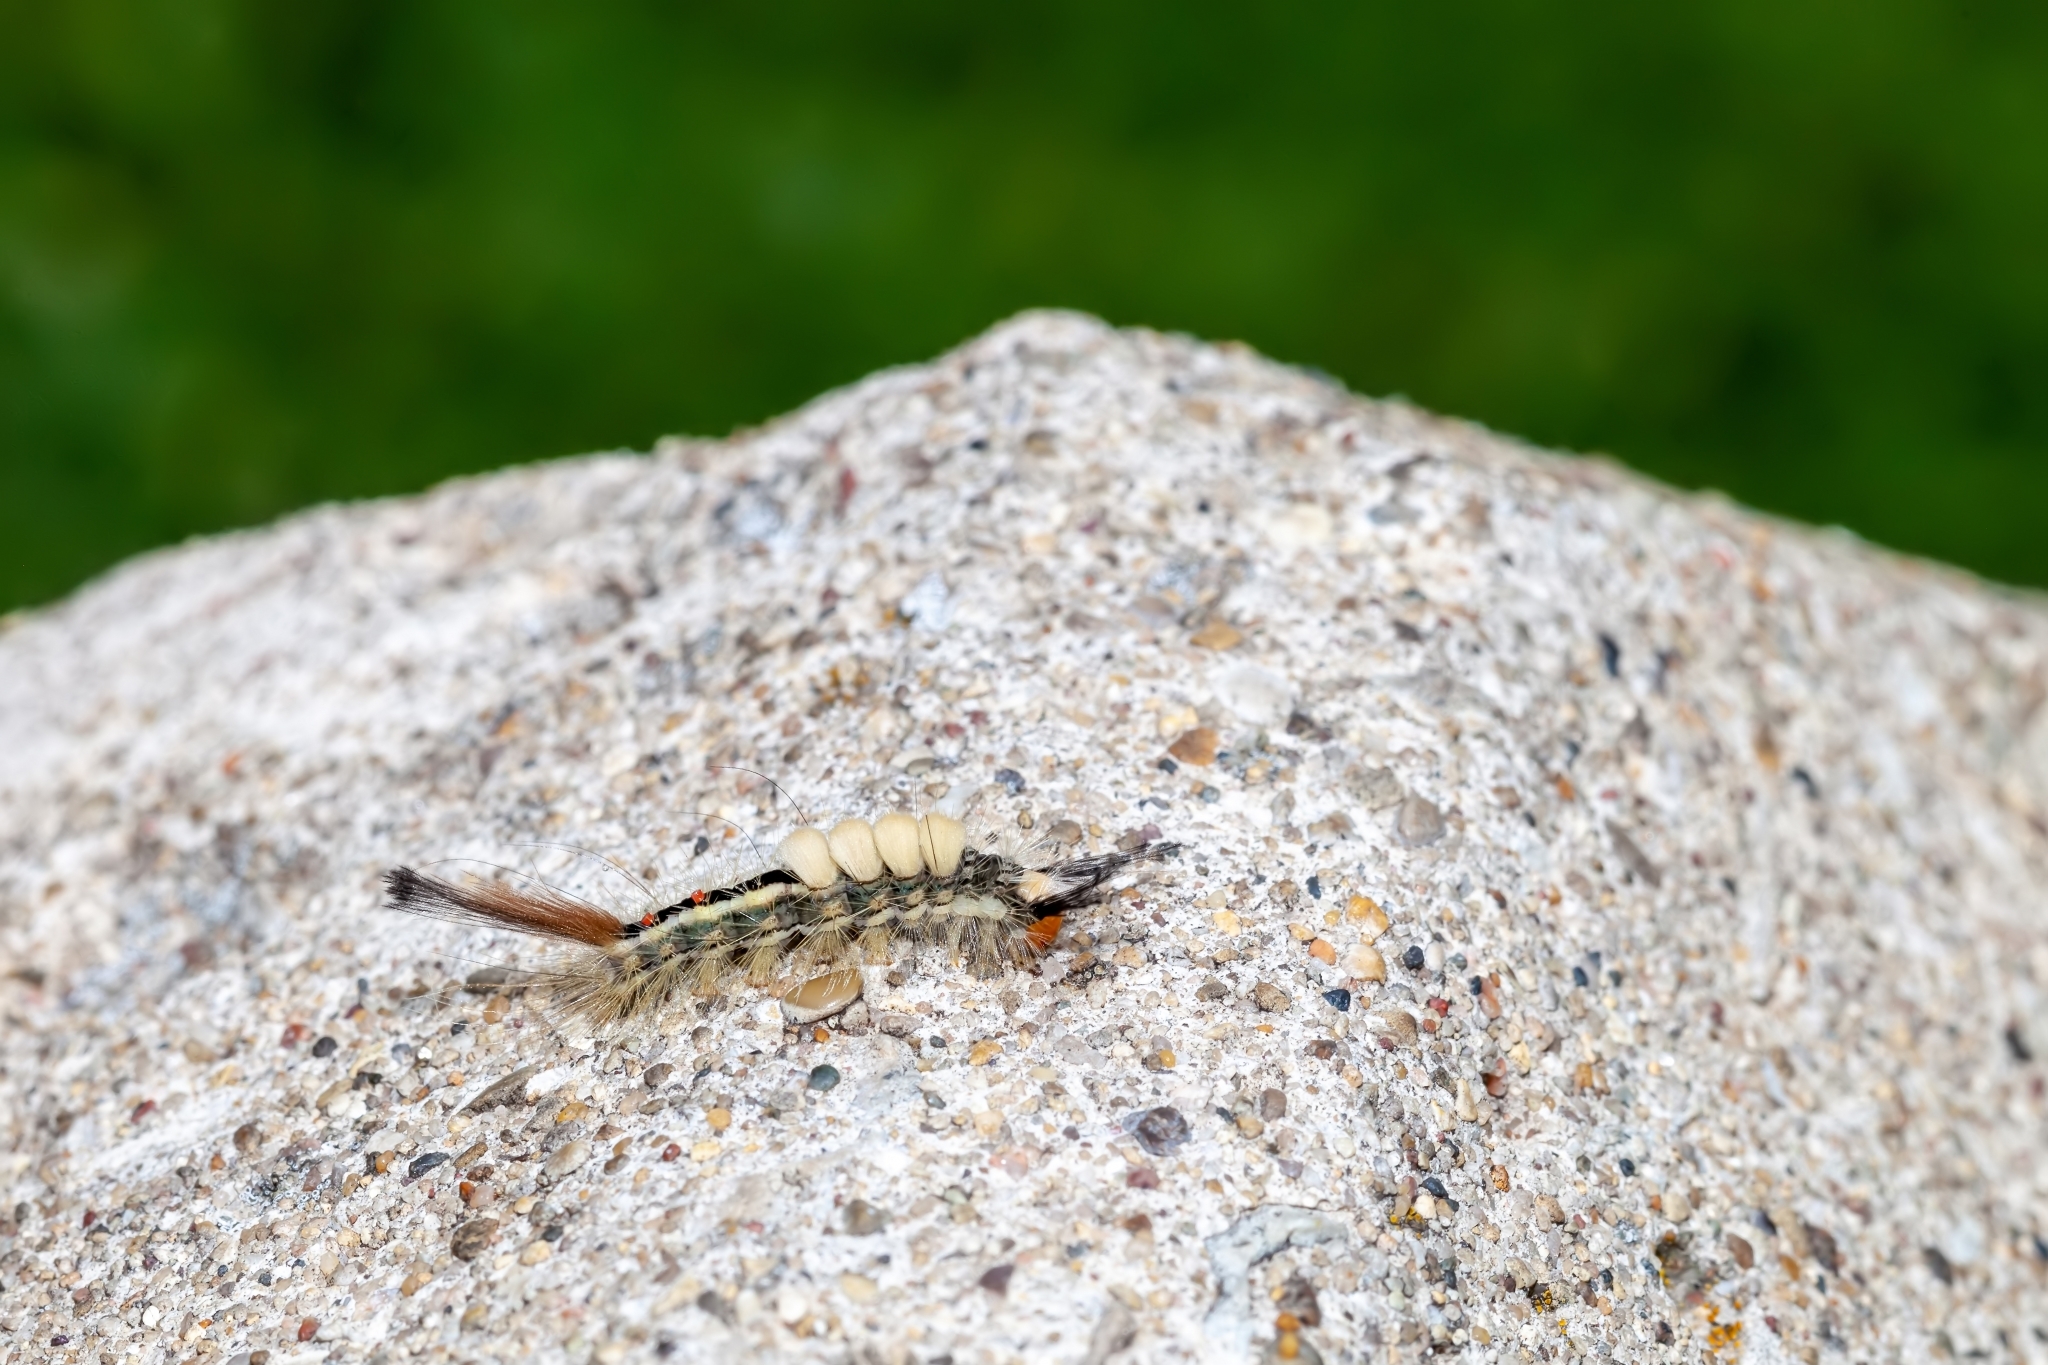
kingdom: Animalia
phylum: Arthropoda
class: Insecta
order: Lepidoptera
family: Erebidae
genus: Orgyia
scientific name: Orgyia leucostigma
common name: White-marked tussock moth
